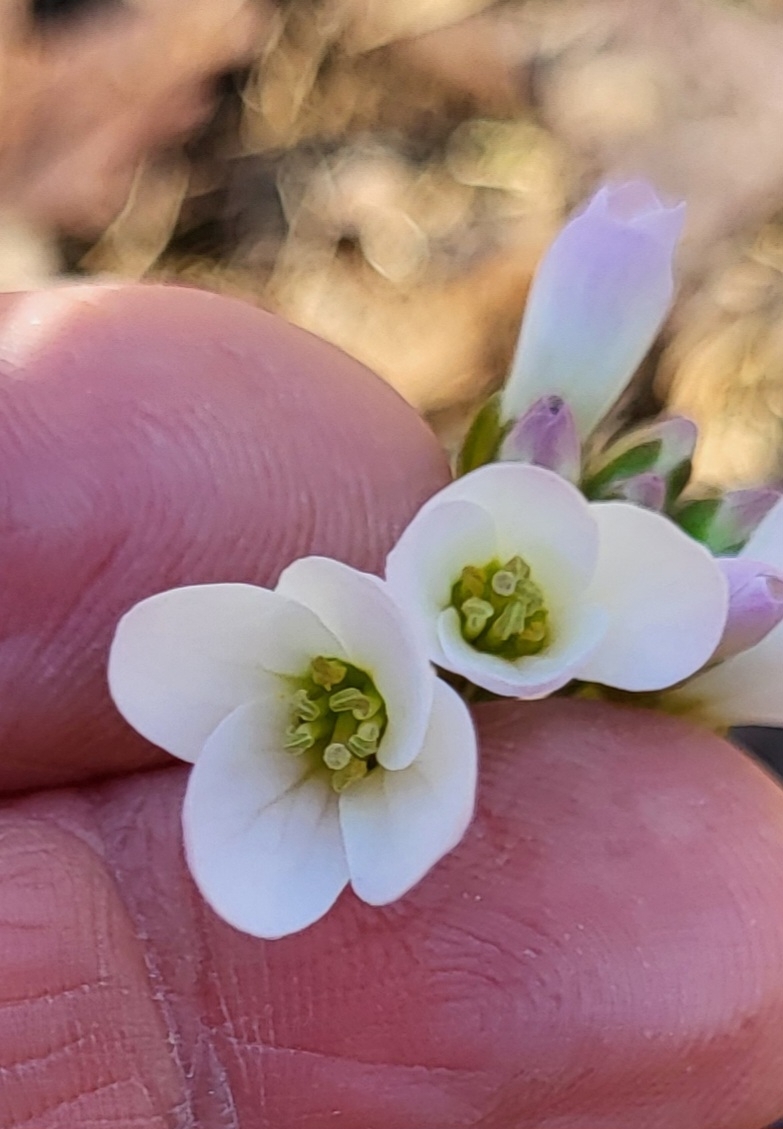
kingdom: Plantae
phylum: Tracheophyta
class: Magnoliopsida
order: Brassicales
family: Brassicaceae
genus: Cardamine
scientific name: Cardamine concatenata
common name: Cut-leaf toothcup
